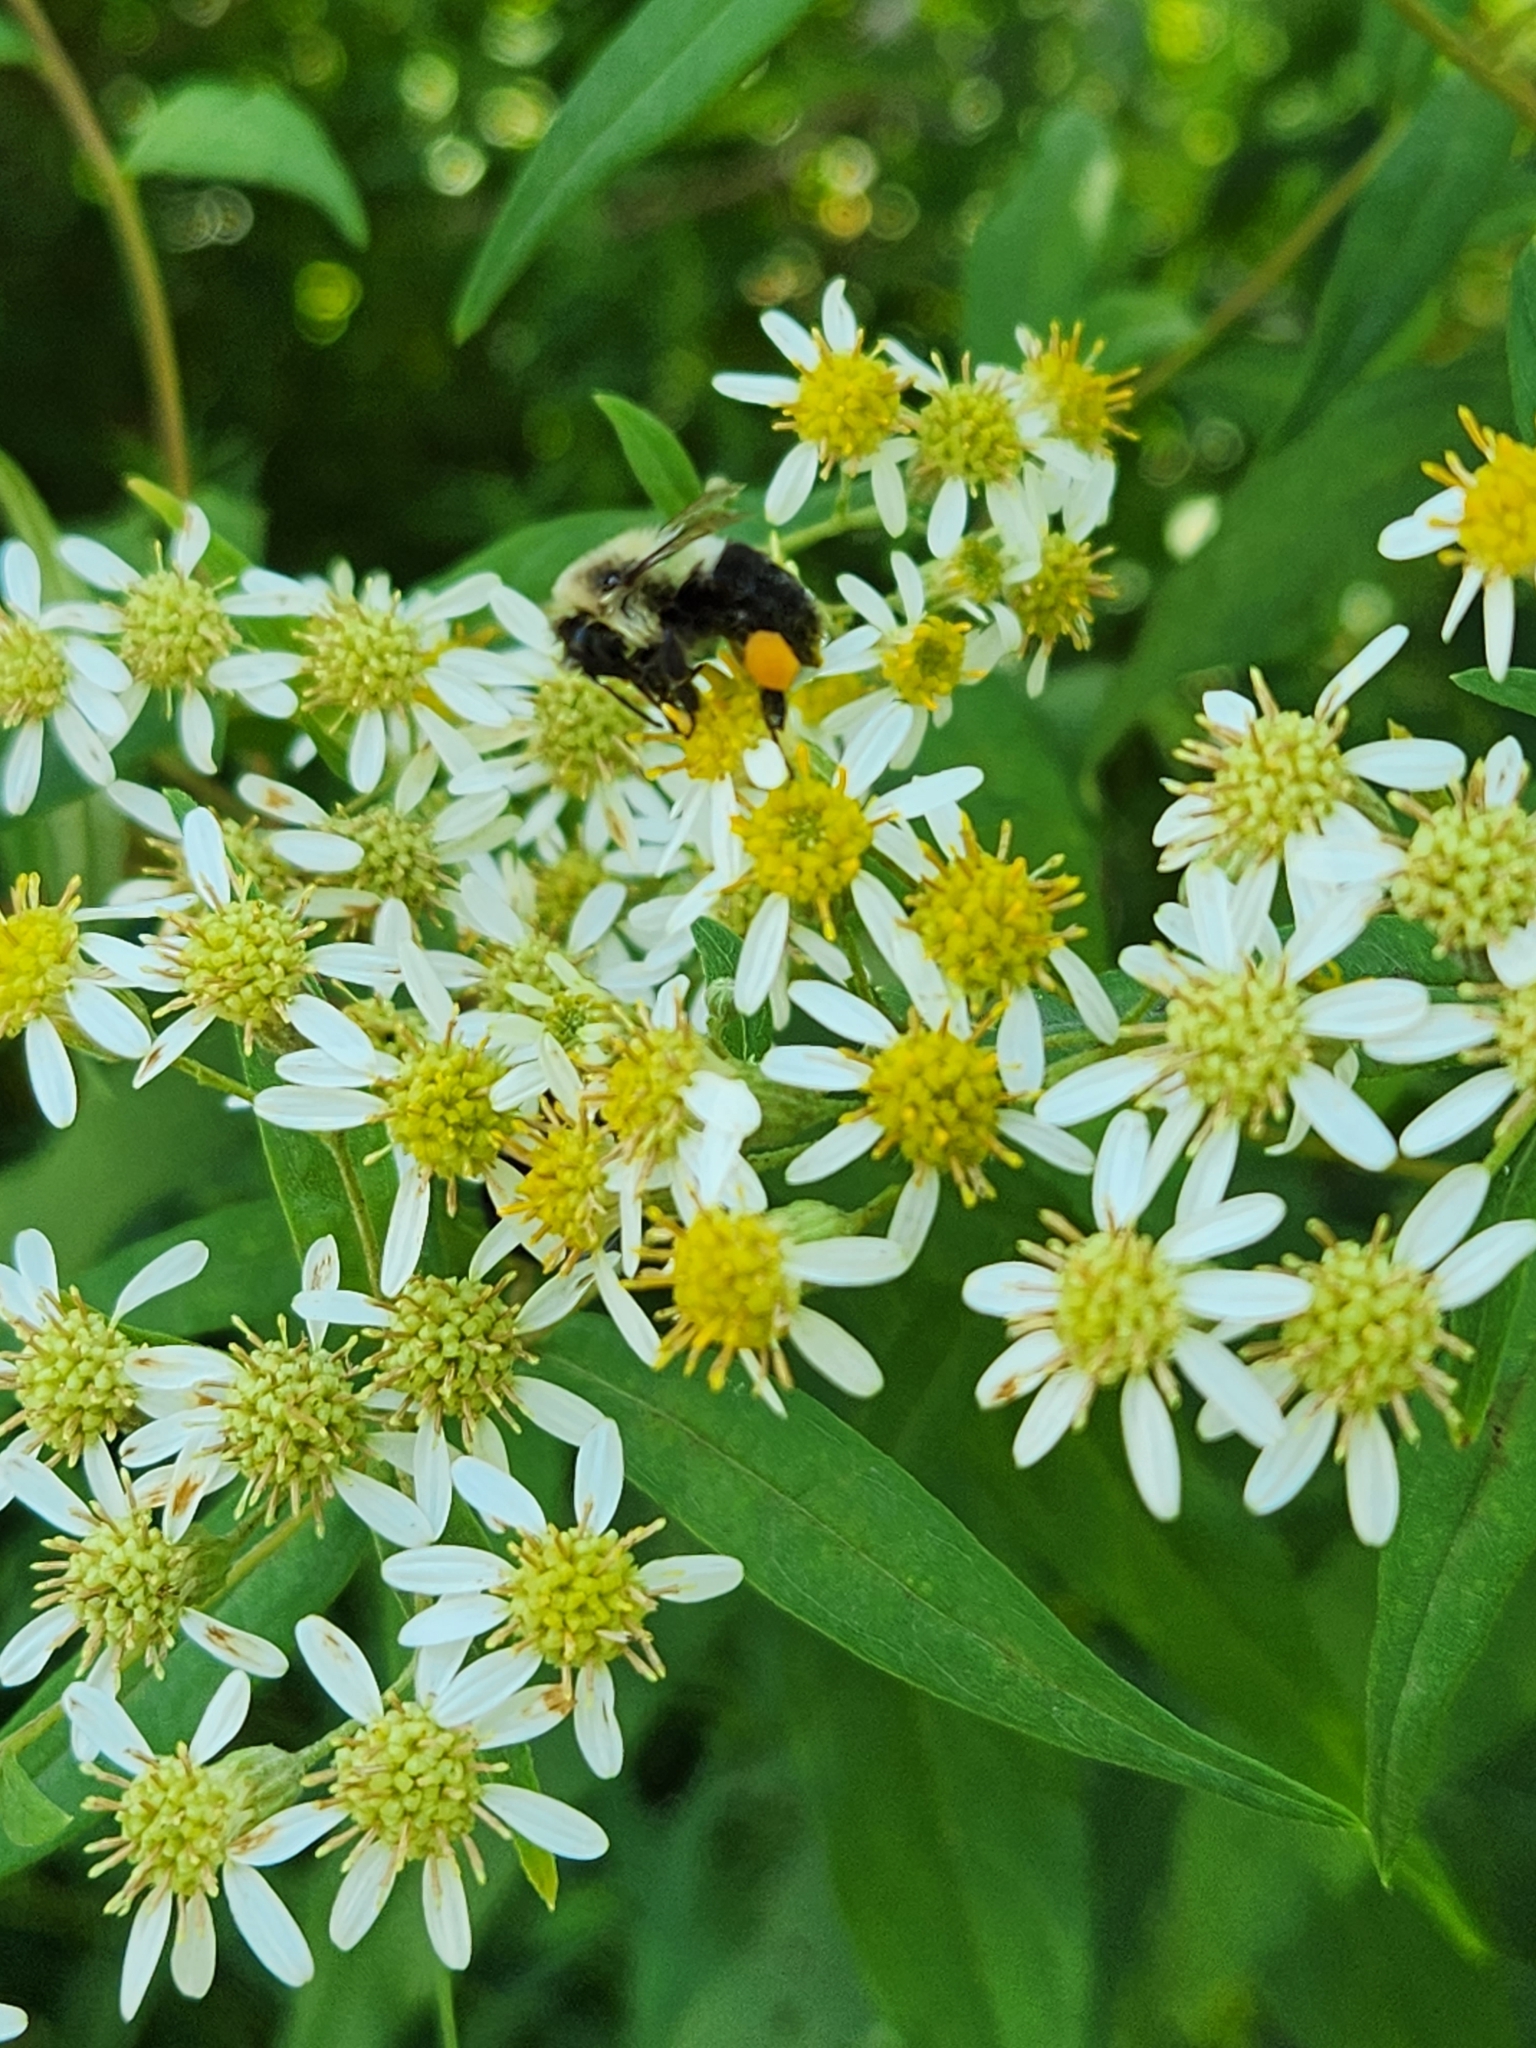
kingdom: Animalia
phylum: Arthropoda
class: Insecta
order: Hymenoptera
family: Apidae
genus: Bombus
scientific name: Bombus impatiens
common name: Common eastern bumble bee
